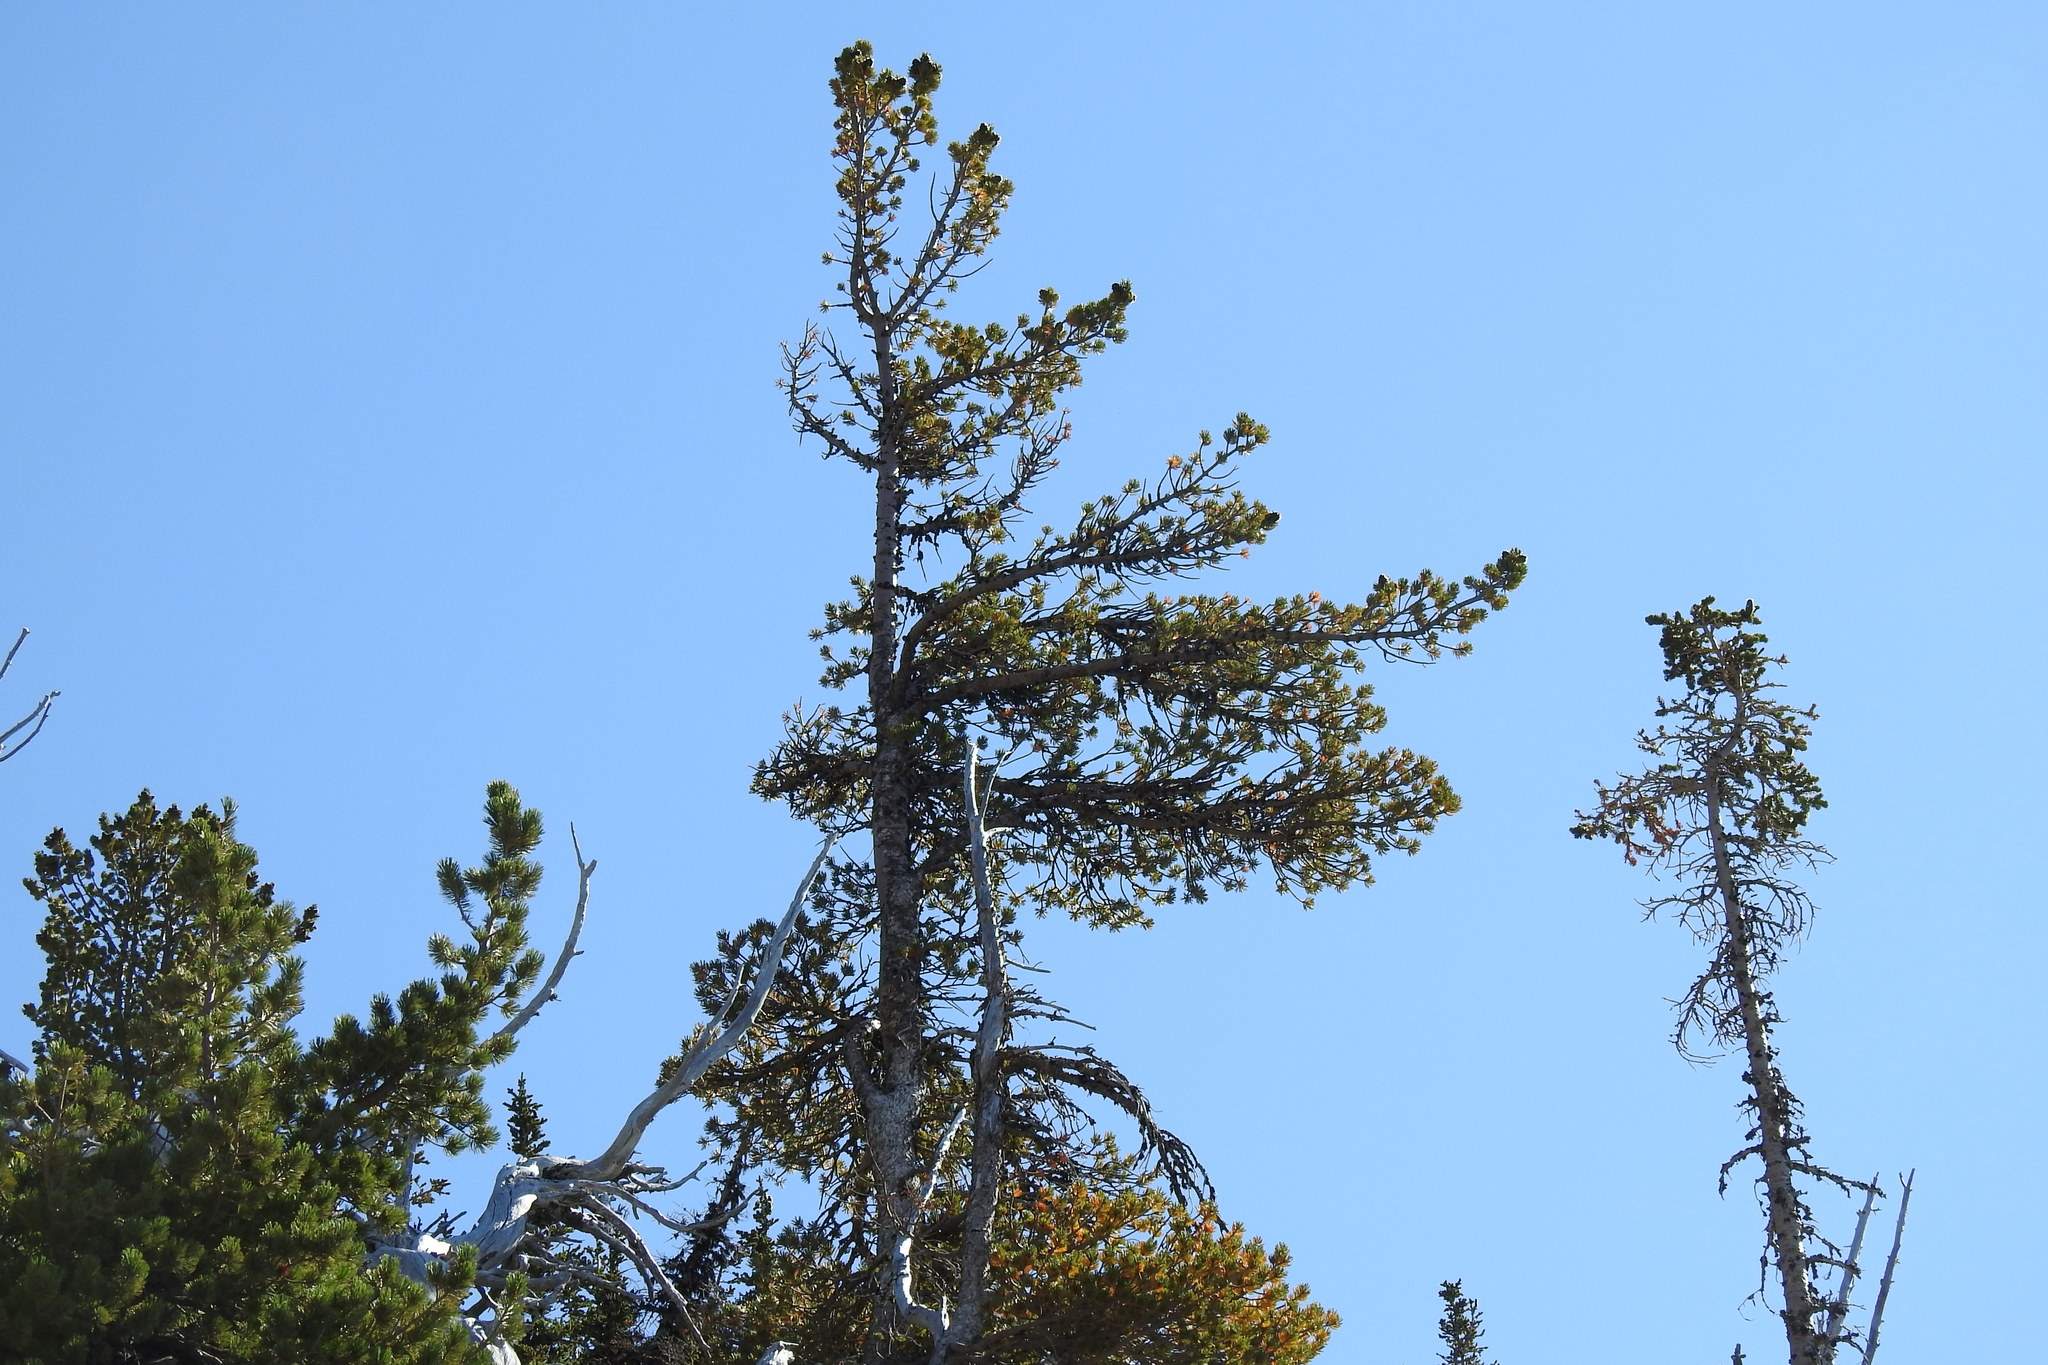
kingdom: Plantae
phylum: Tracheophyta
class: Pinopsida
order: Pinales
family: Pinaceae
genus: Pinus
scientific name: Pinus albicaulis
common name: Whitebark pine
